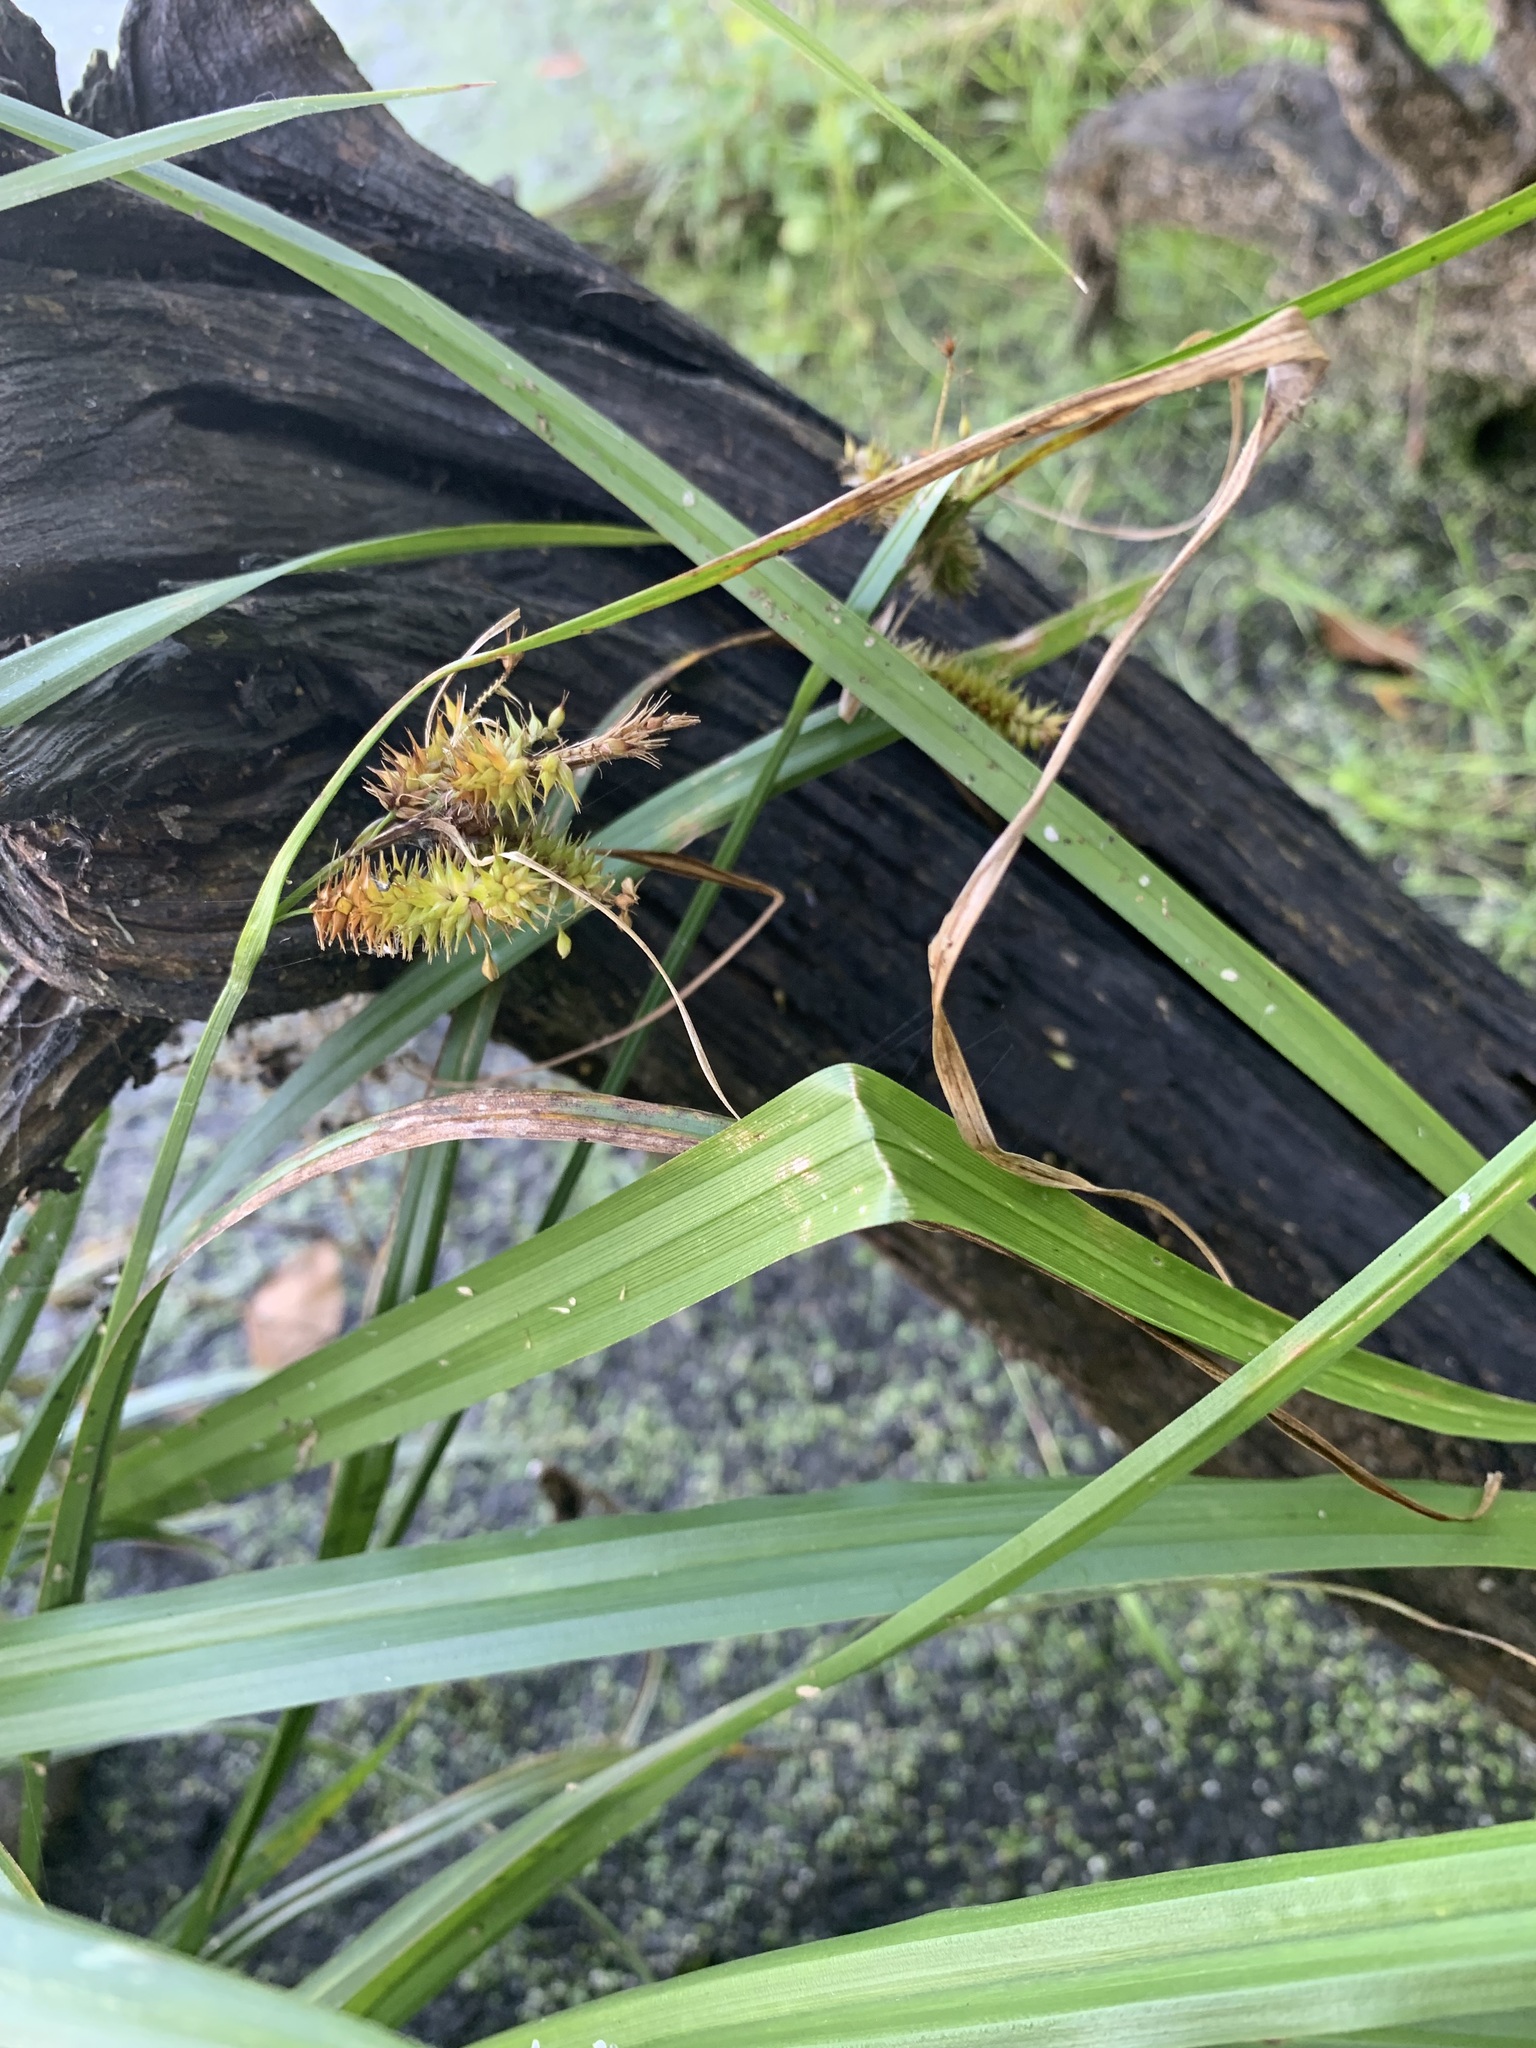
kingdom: Plantae
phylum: Tracheophyta
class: Liliopsida
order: Poales
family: Cyperaceae
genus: Carex
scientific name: Carex pseudocyperus
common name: Cyperus sedge
